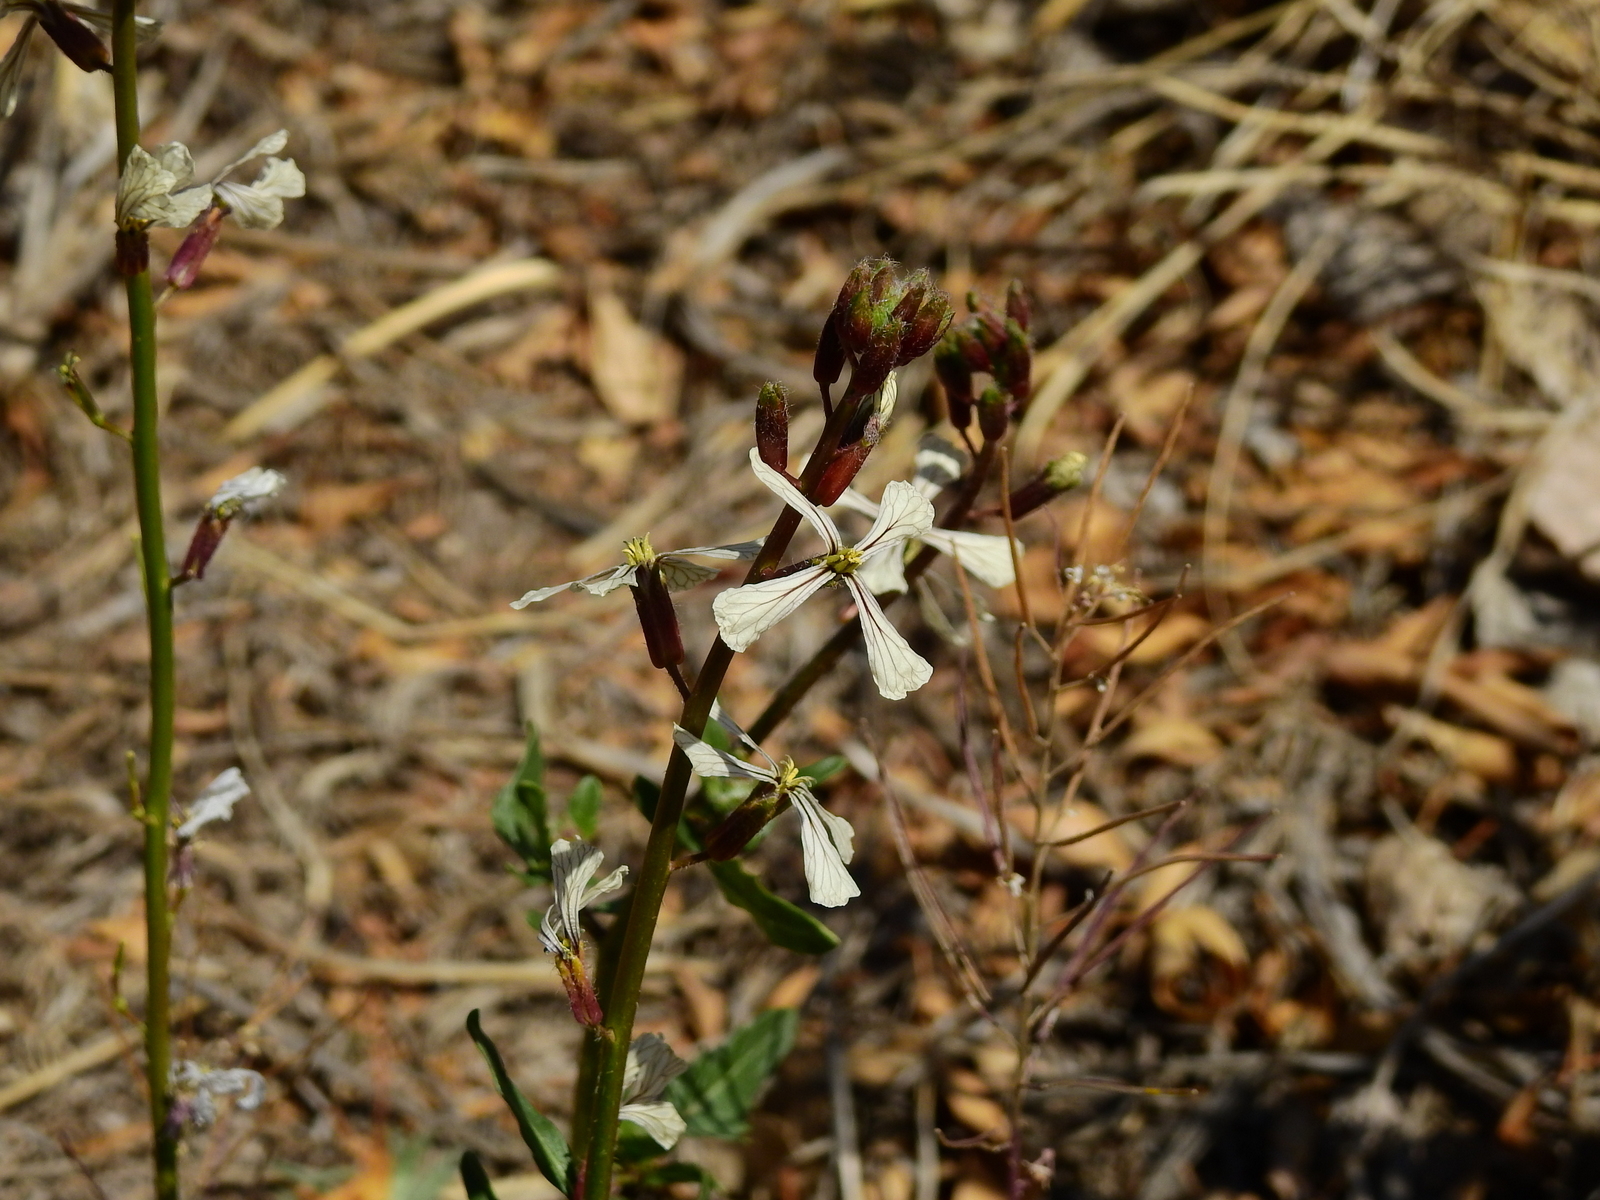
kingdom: Plantae
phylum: Tracheophyta
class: Magnoliopsida
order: Brassicales
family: Brassicaceae
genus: Eruca
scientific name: Eruca vesicaria
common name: Garden rocket
